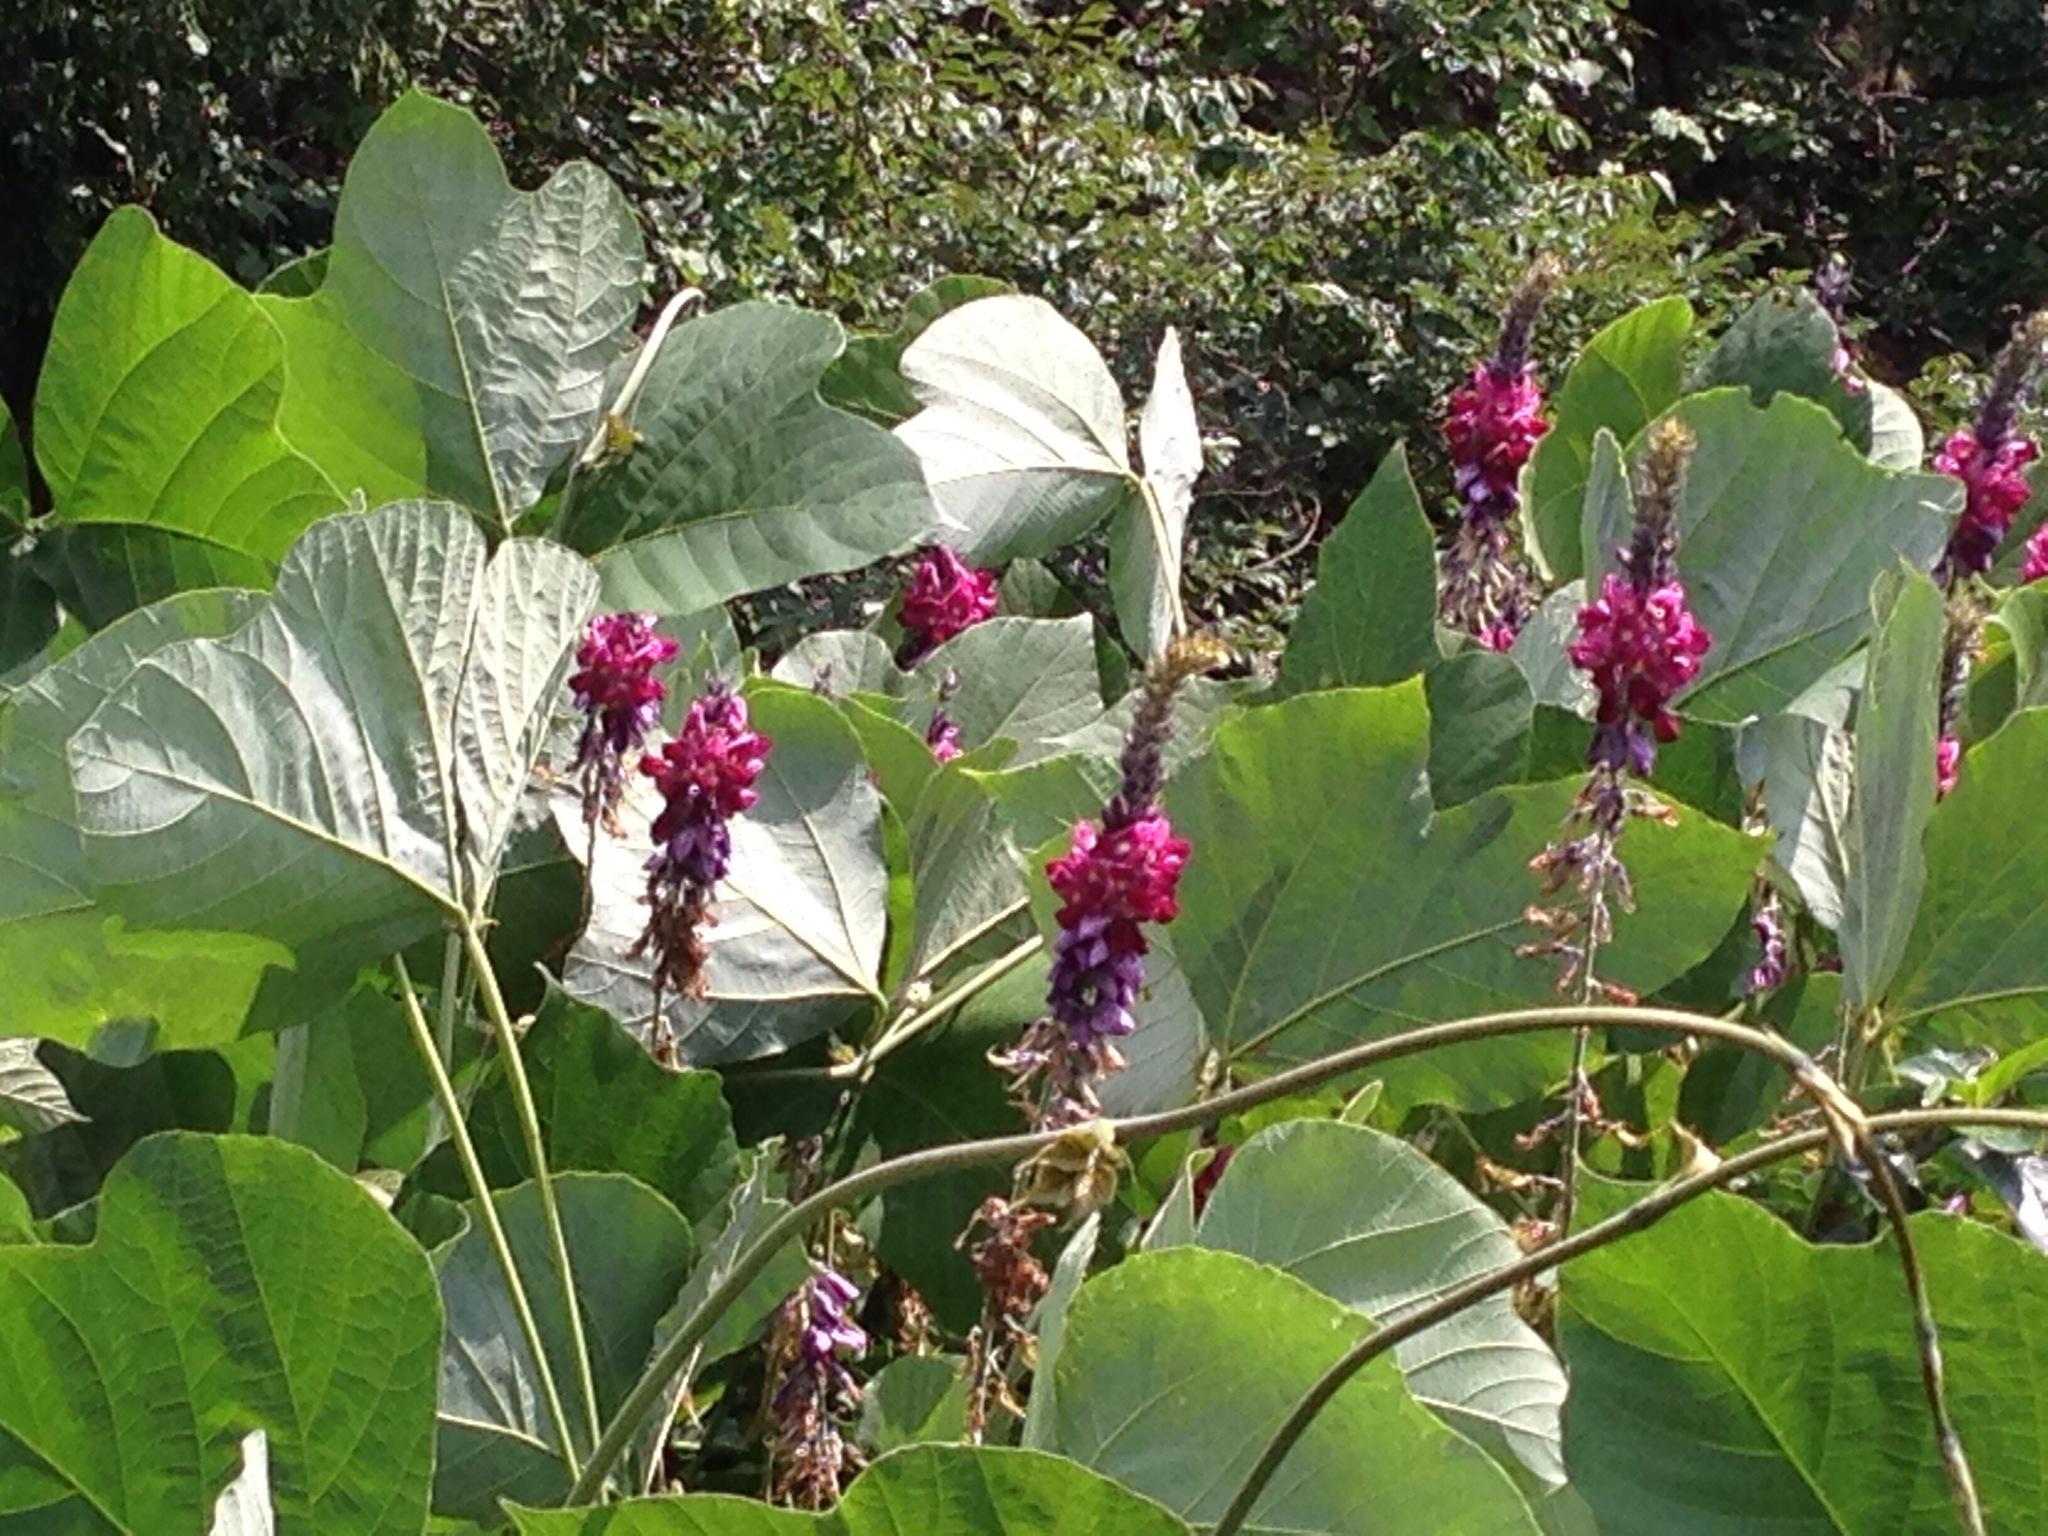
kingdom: Plantae
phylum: Tracheophyta
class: Magnoliopsida
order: Fabales
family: Fabaceae
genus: Pueraria
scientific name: Pueraria montana
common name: Kudzu
